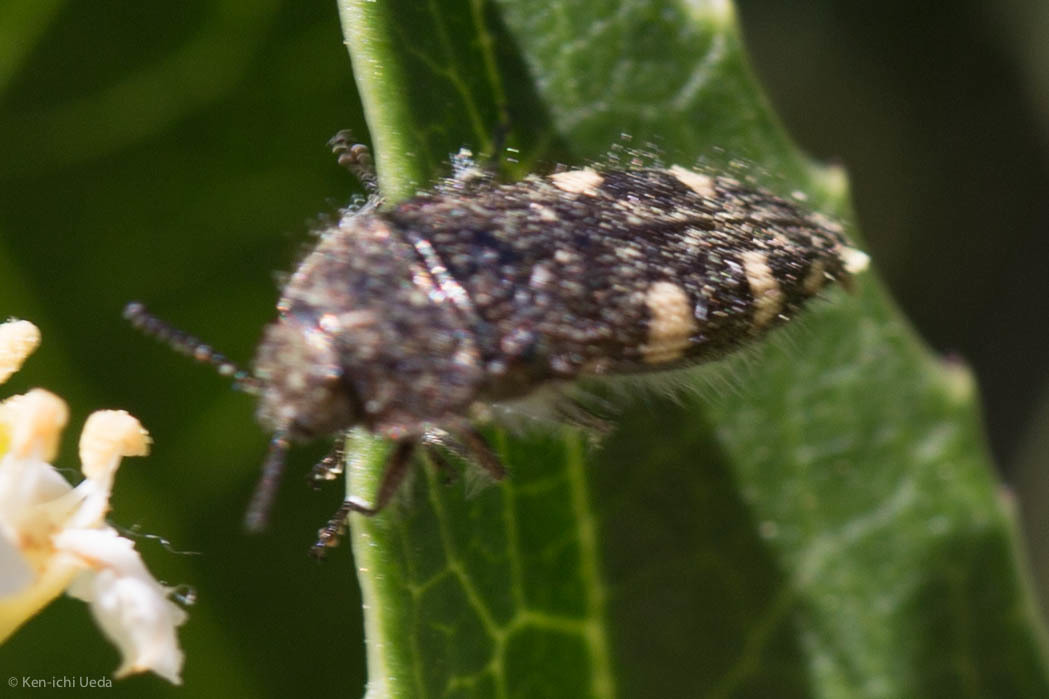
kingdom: Animalia
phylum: Arthropoda
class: Insecta
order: Coleoptera
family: Buprestidae
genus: Acmaeodera
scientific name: Acmaeodera prorsa
